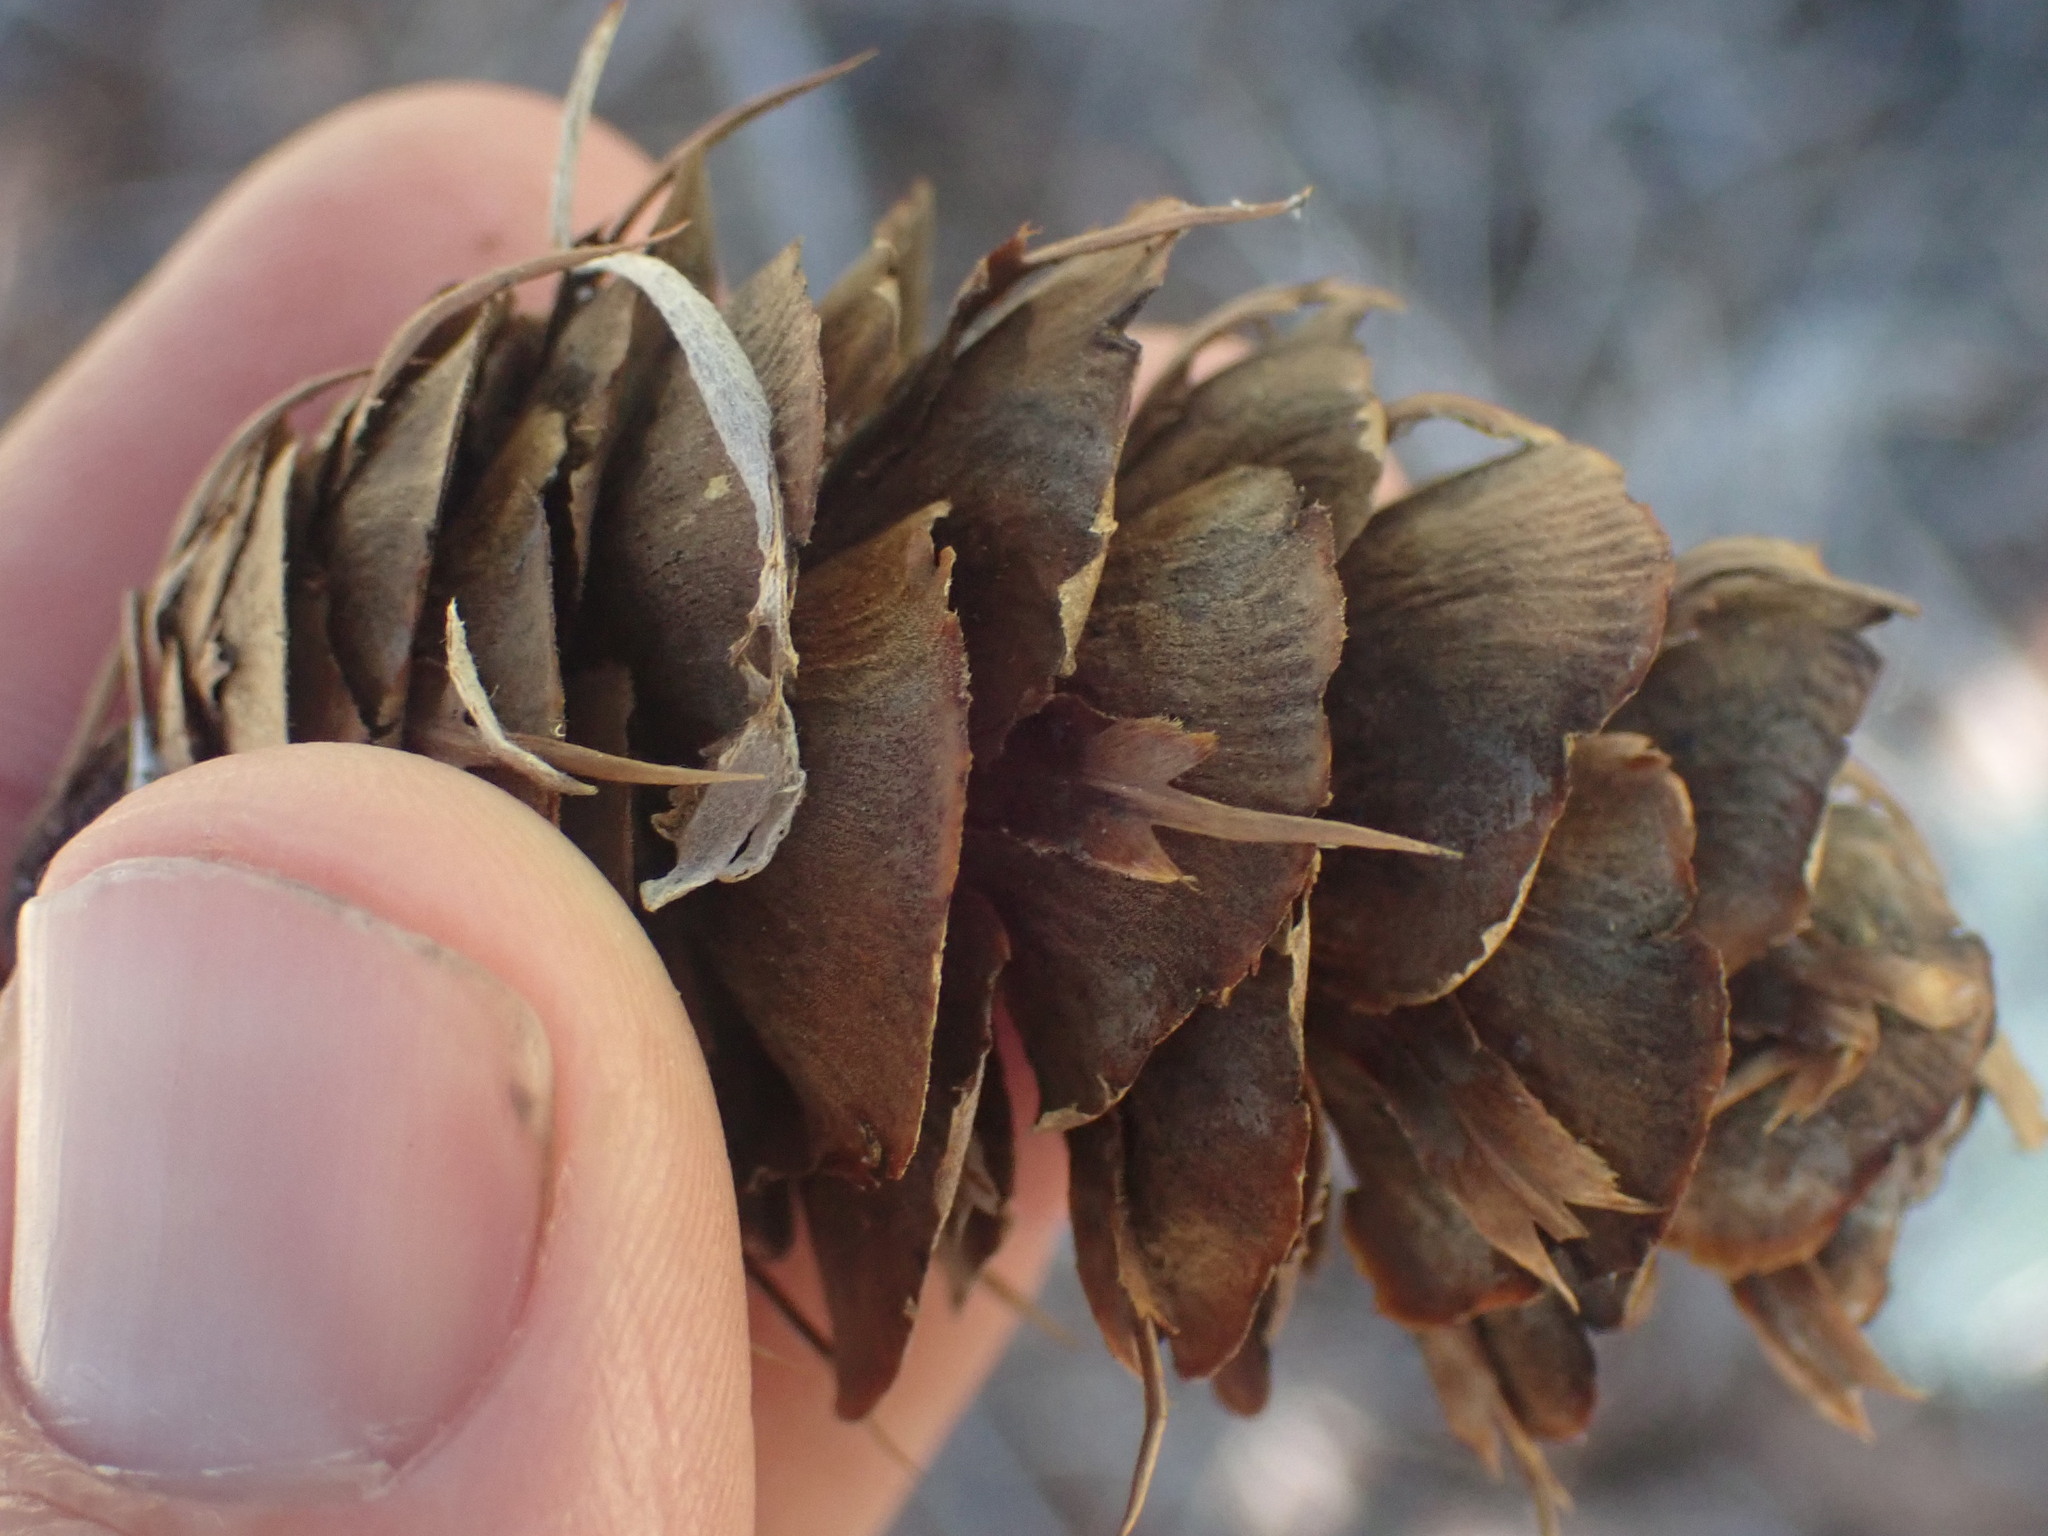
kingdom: Plantae
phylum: Tracheophyta
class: Pinopsida
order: Pinales
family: Pinaceae
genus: Pseudotsuga
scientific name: Pseudotsuga menziesii
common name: Douglas fir
